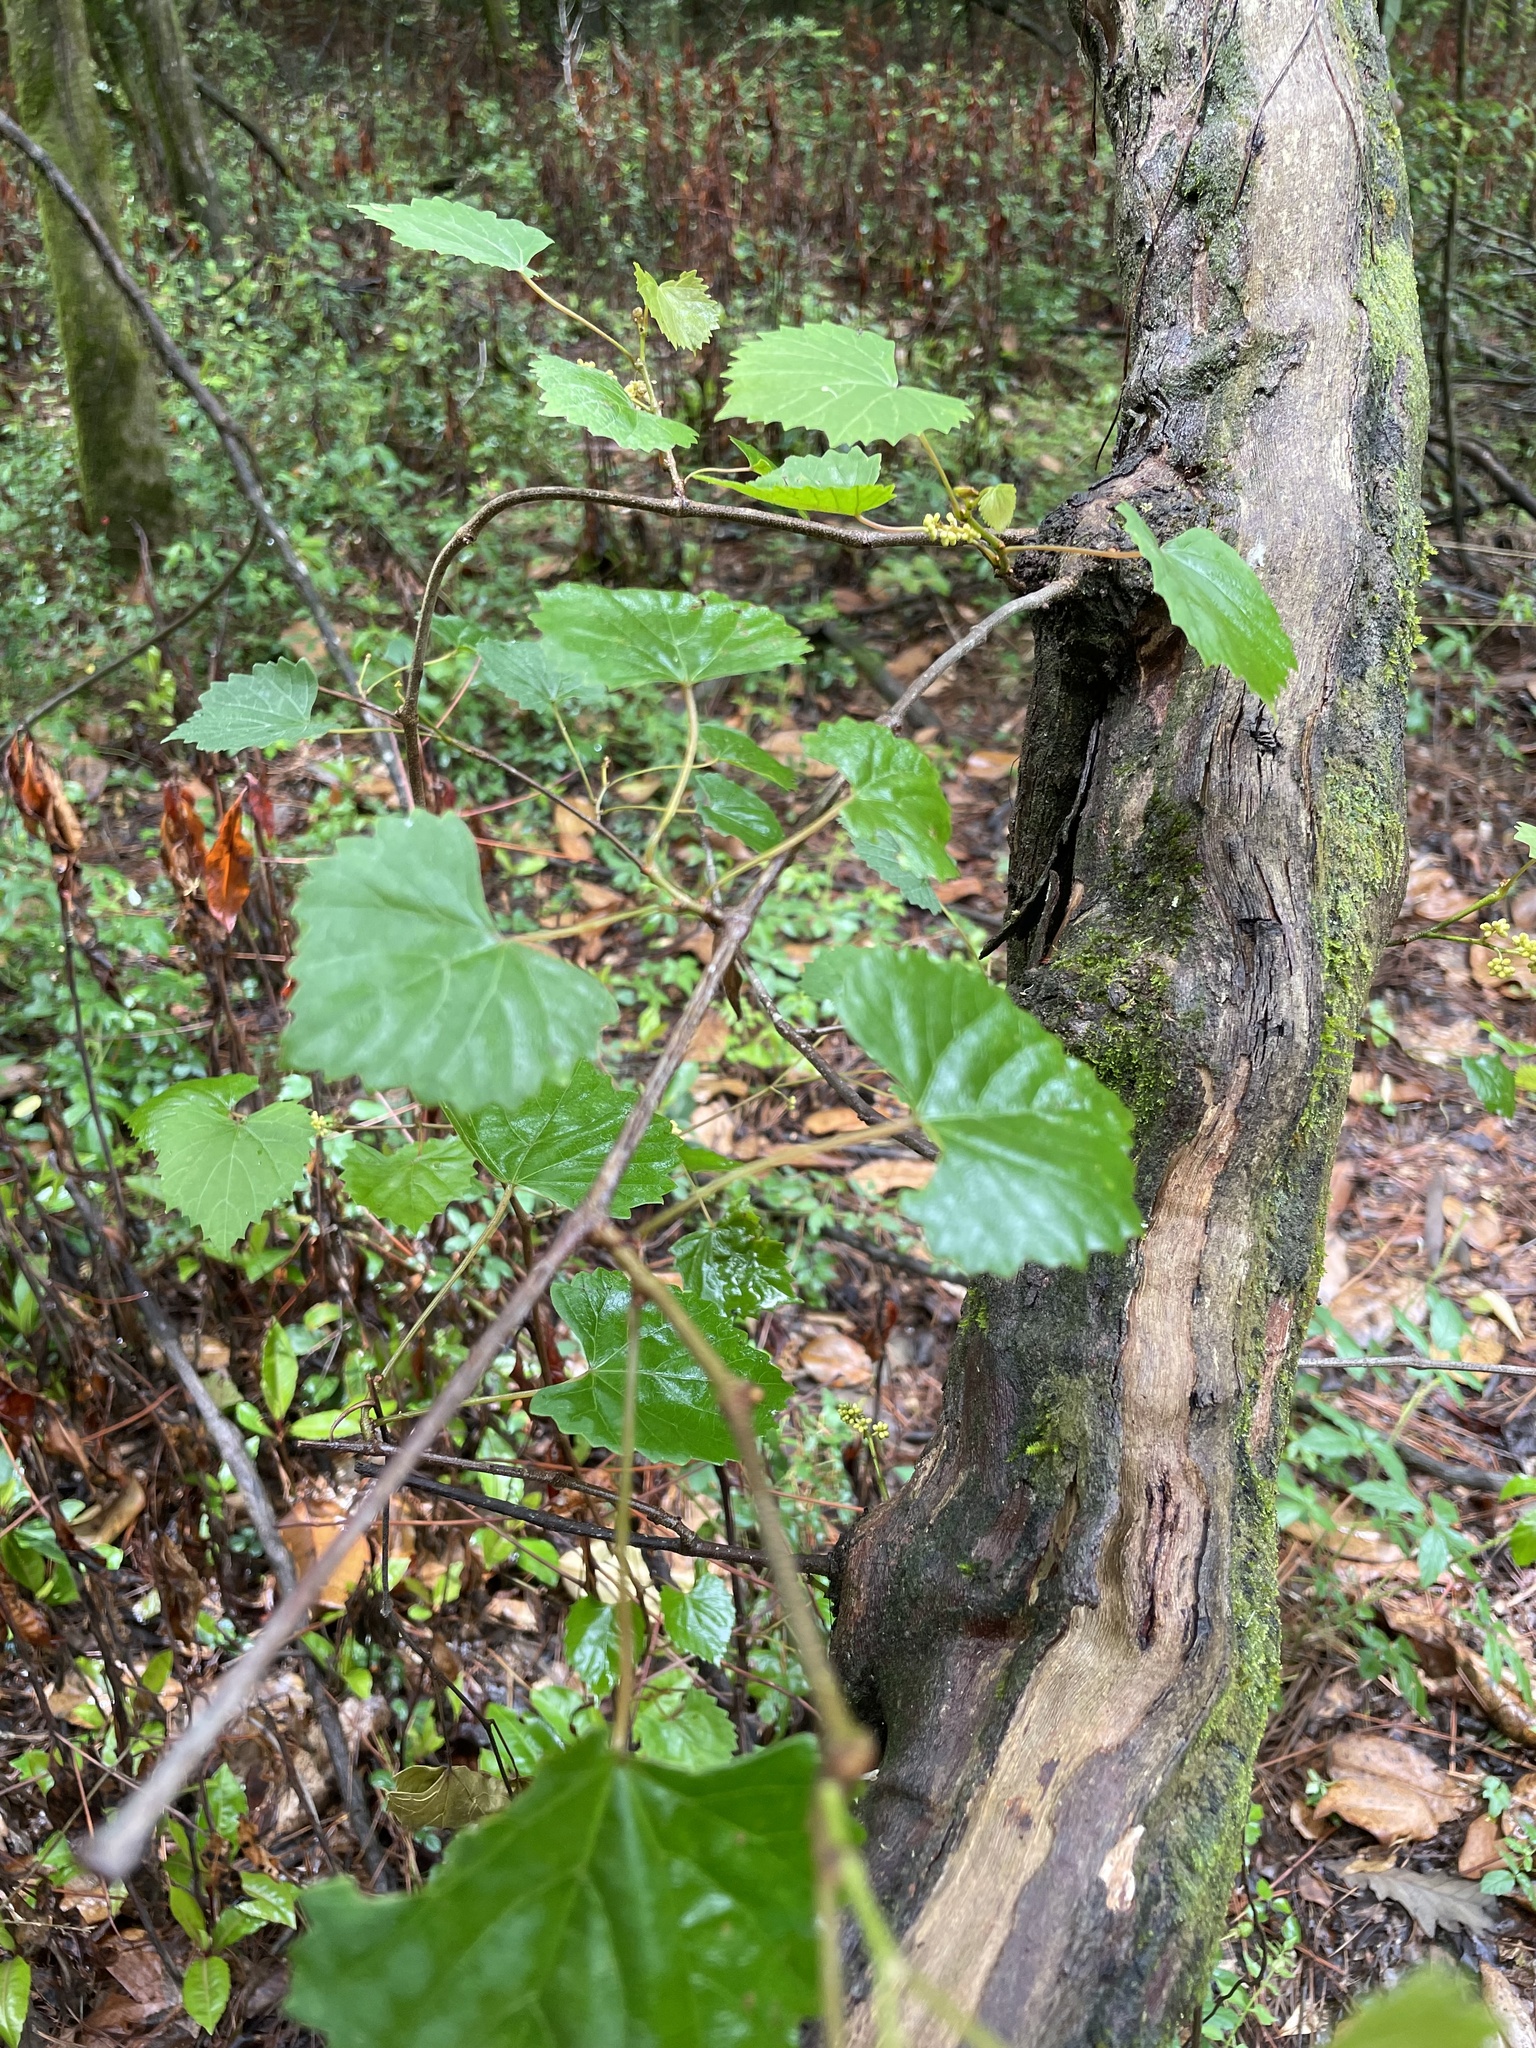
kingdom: Plantae
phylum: Tracheophyta
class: Magnoliopsida
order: Vitales
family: Vitaceae
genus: Vitis
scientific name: Vitis rotundifolia
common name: Muscadine grape
